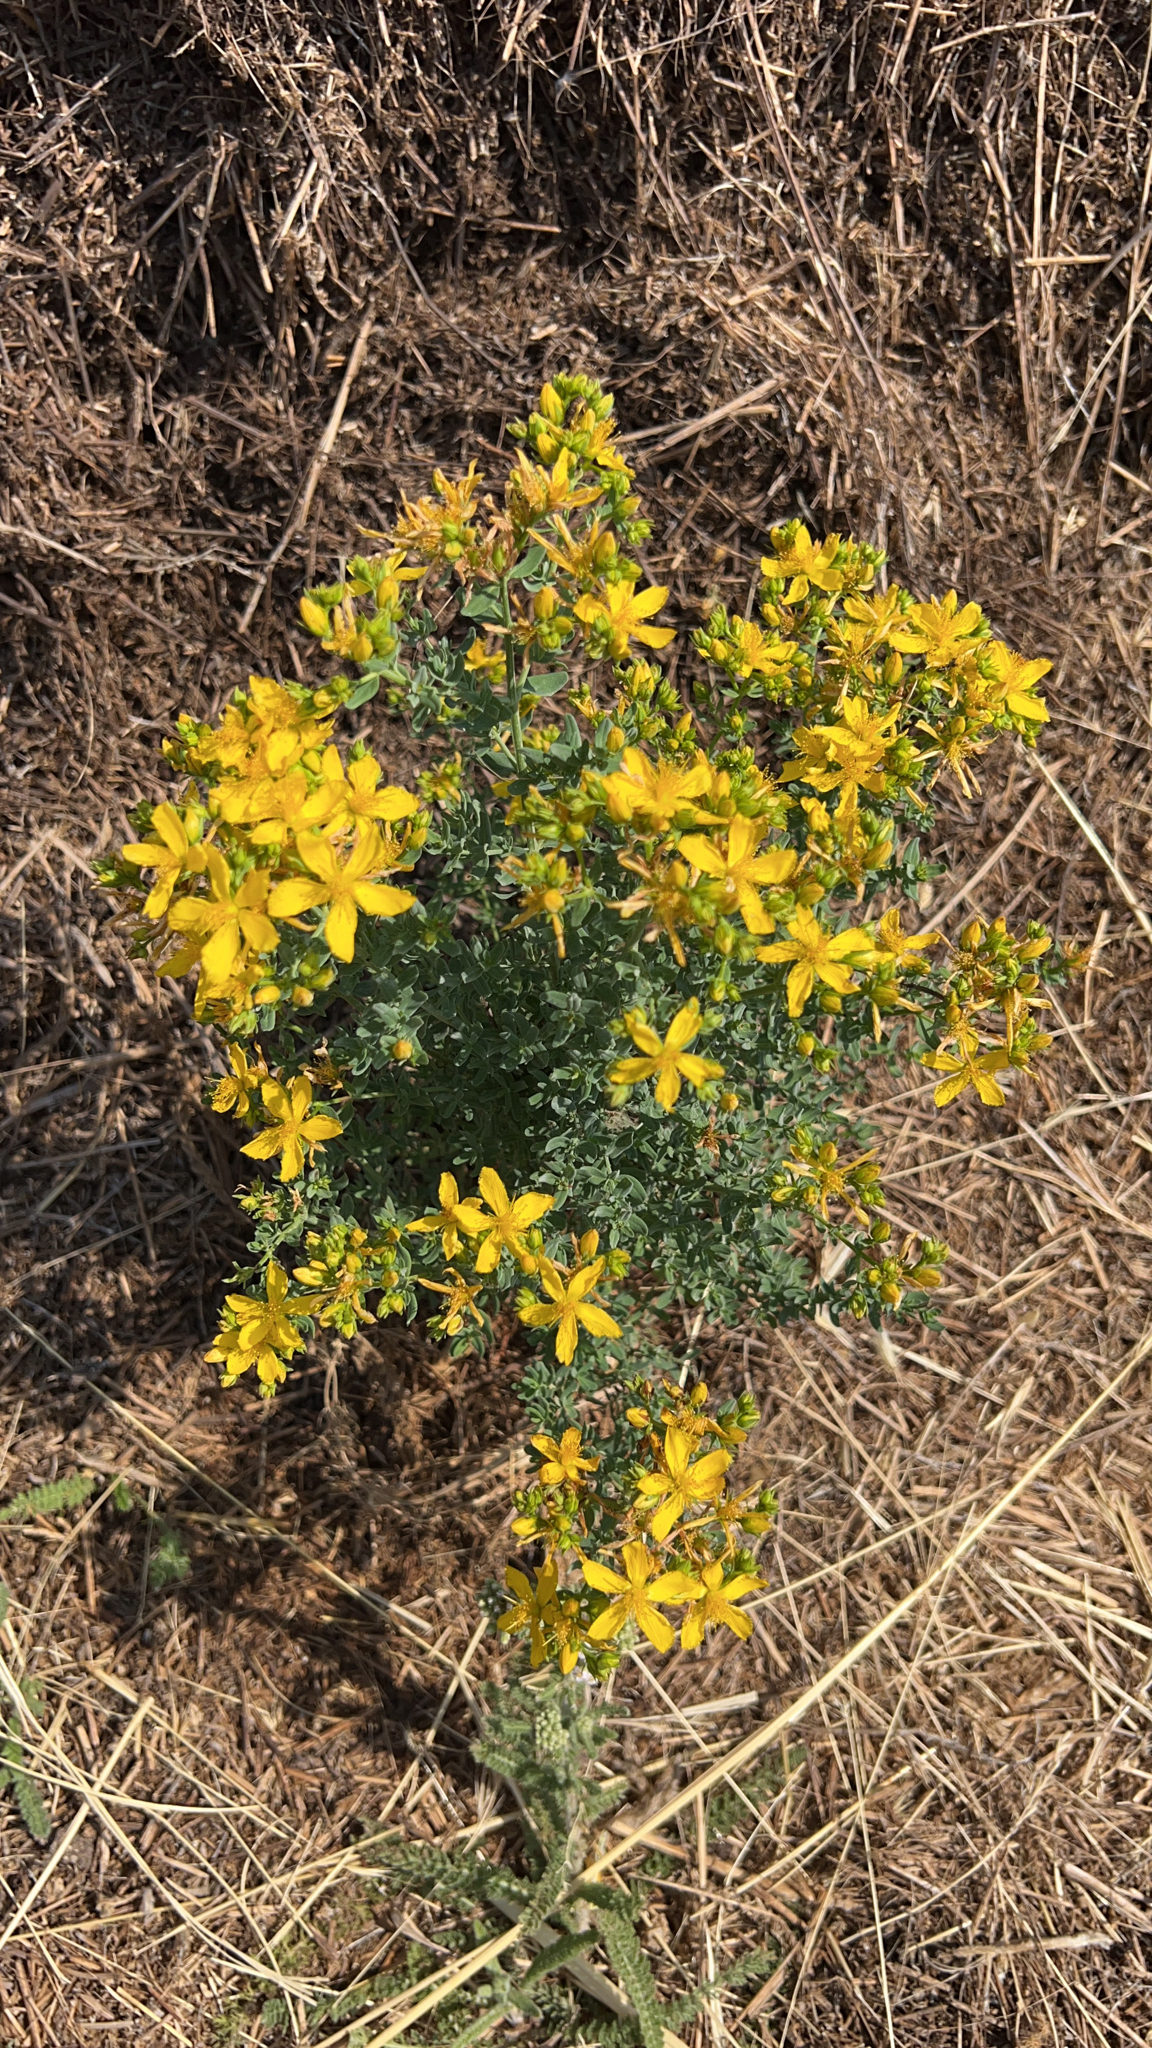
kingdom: Plantae
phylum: Tracheophyta
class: Magnoliopsida
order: Malpighiales
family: Hypericaceae
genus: Hypericum
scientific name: Hypericum perforatum
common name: Common st. johnswort
